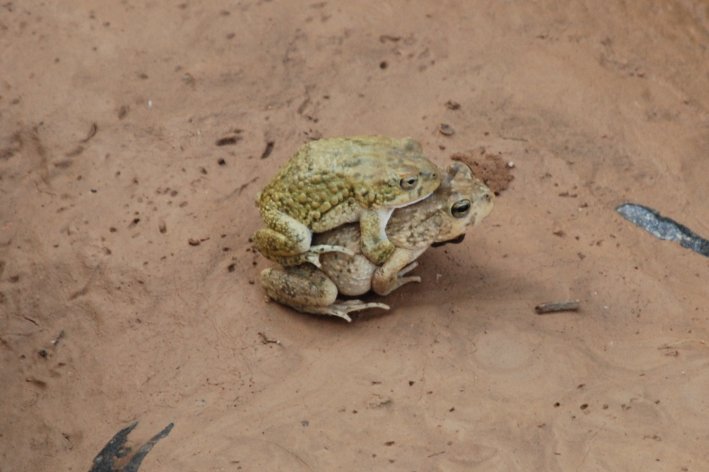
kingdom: Animalia
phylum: Chordata
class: Amphibia
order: Anura
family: Bufonidae
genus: Sclerophrys
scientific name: Sclerophrys arabica
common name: Arabian toad
